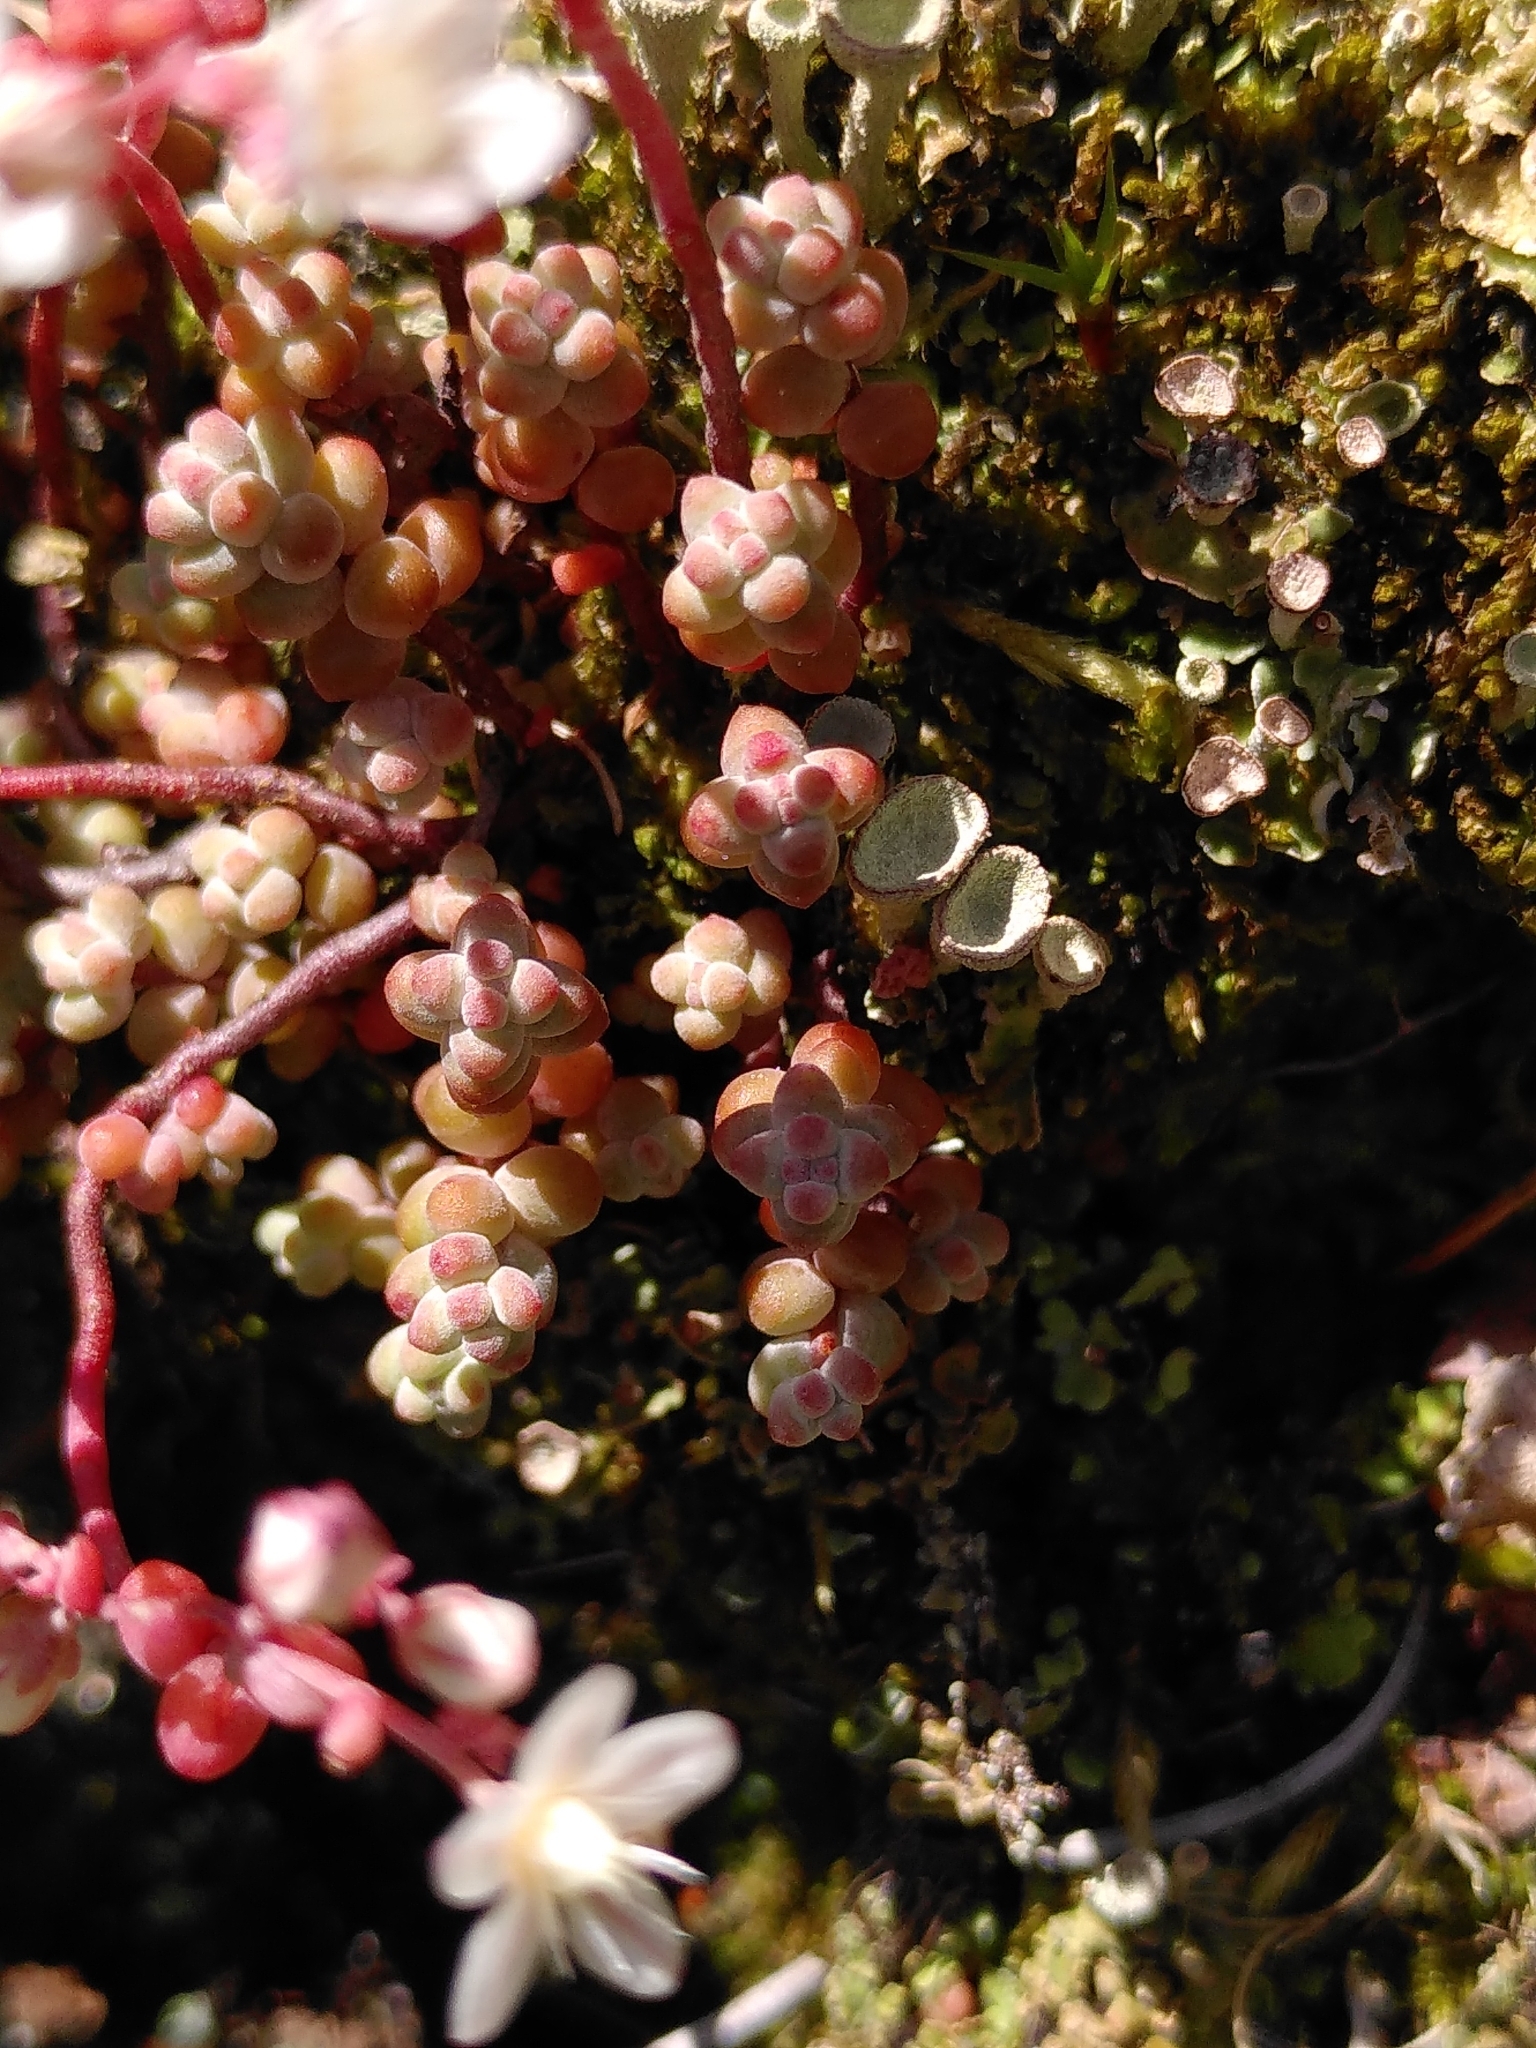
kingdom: Plantae
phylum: Tracheophyta
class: Magnoliopsida
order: Saxifragales
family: Crassulaceae
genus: Sedum
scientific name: Sedum brevifolium
